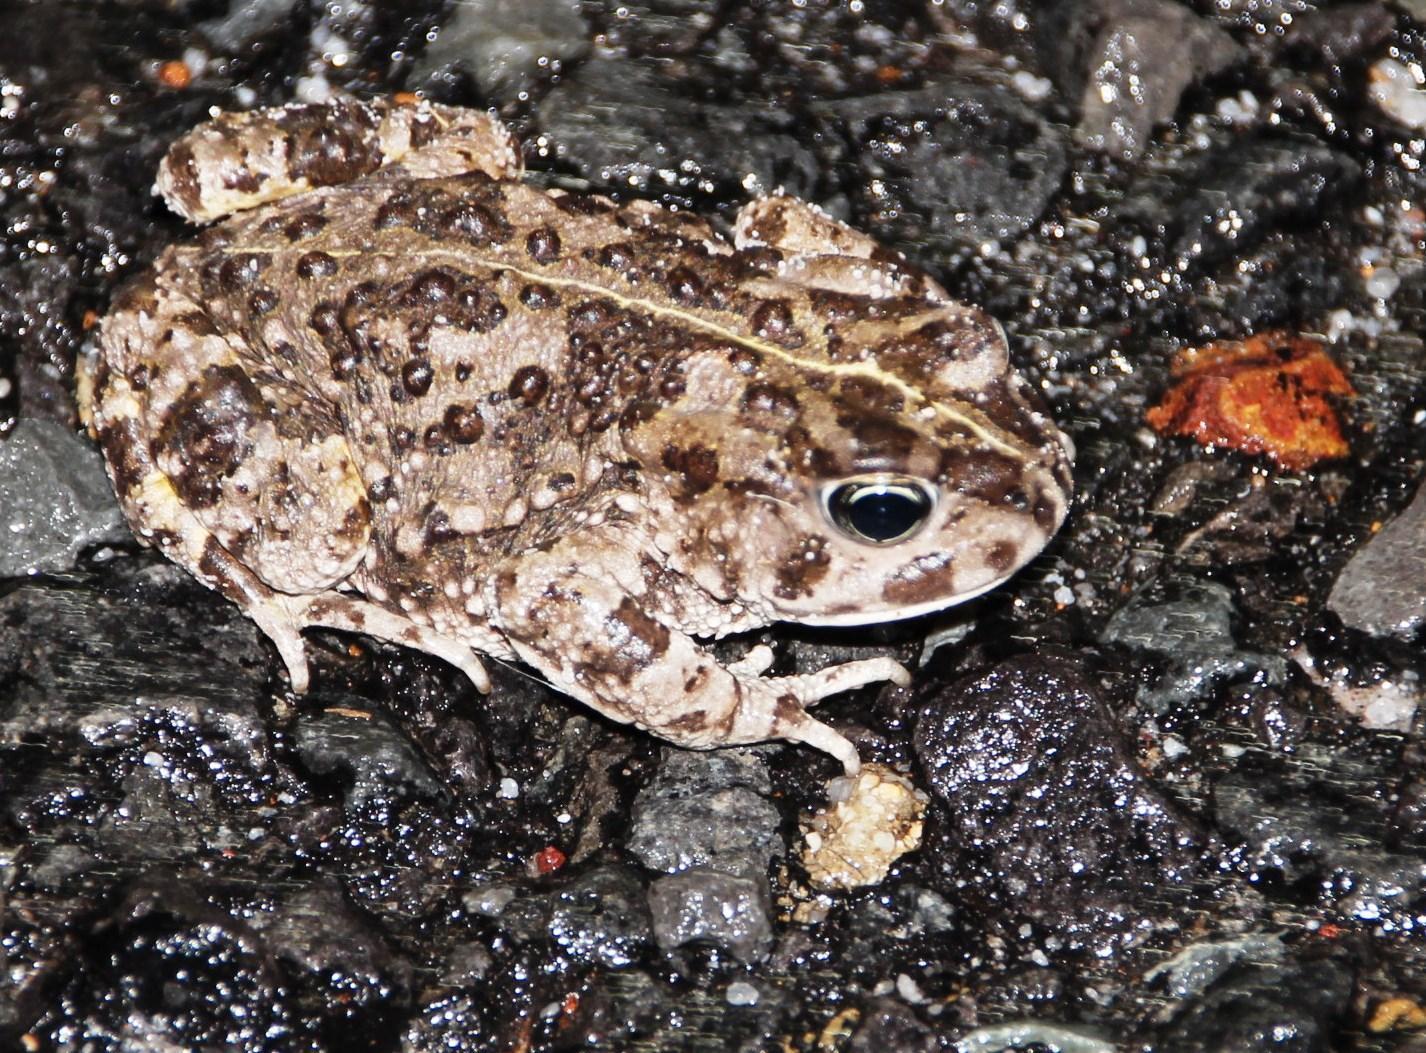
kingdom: Animalia
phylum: Chordata
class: Amphibia
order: Anura
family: Bufonidae
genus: Vandijkophrynus
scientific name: Vandijkophrynus angusticeps
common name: Sand toad
